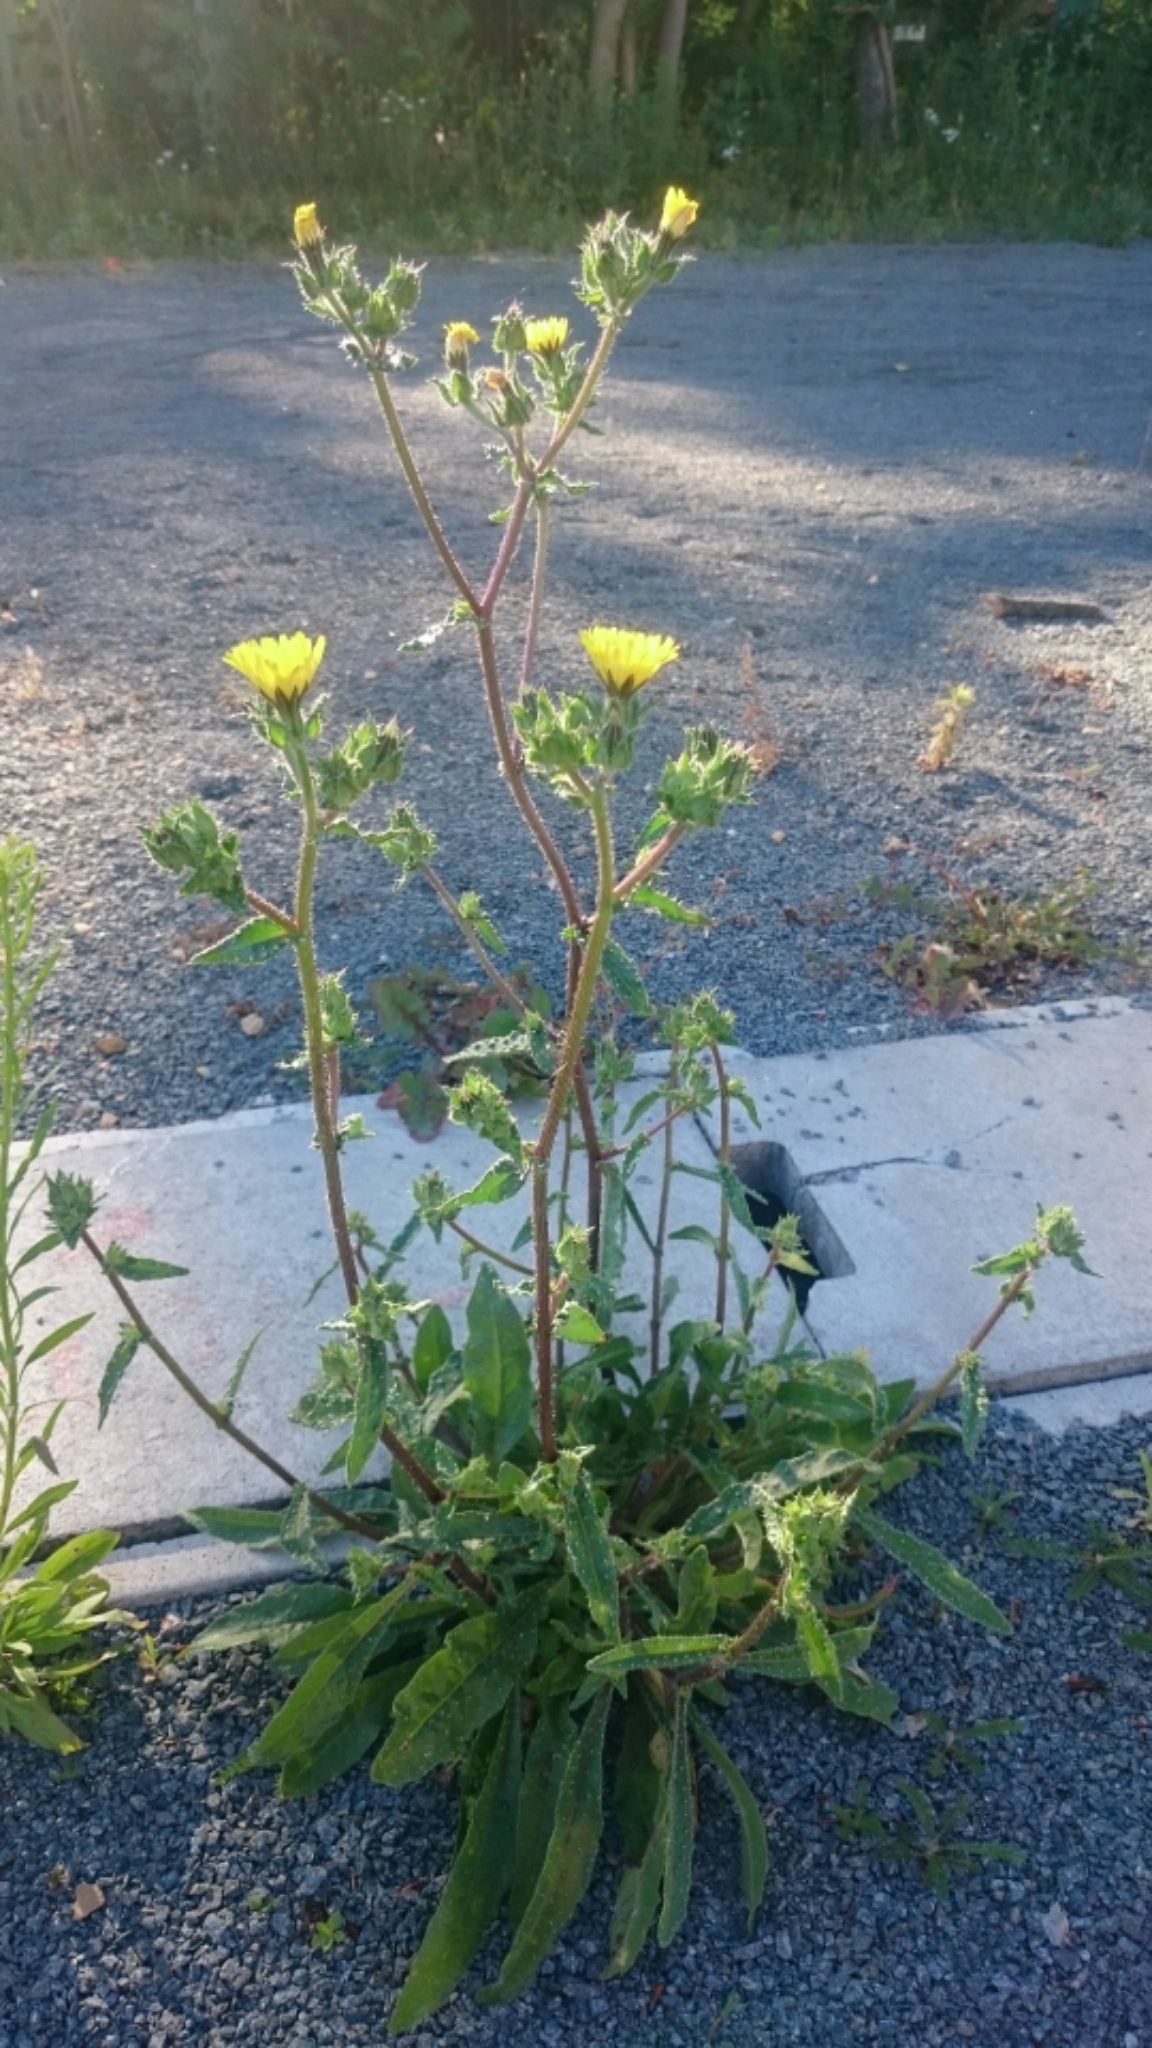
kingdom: Plantae
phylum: Tracheophyta
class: Magnoliopsida
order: Asterales
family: Asteraceae
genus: Helminthotheca
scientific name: Helminthotheca echioides
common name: Ox-tongue
